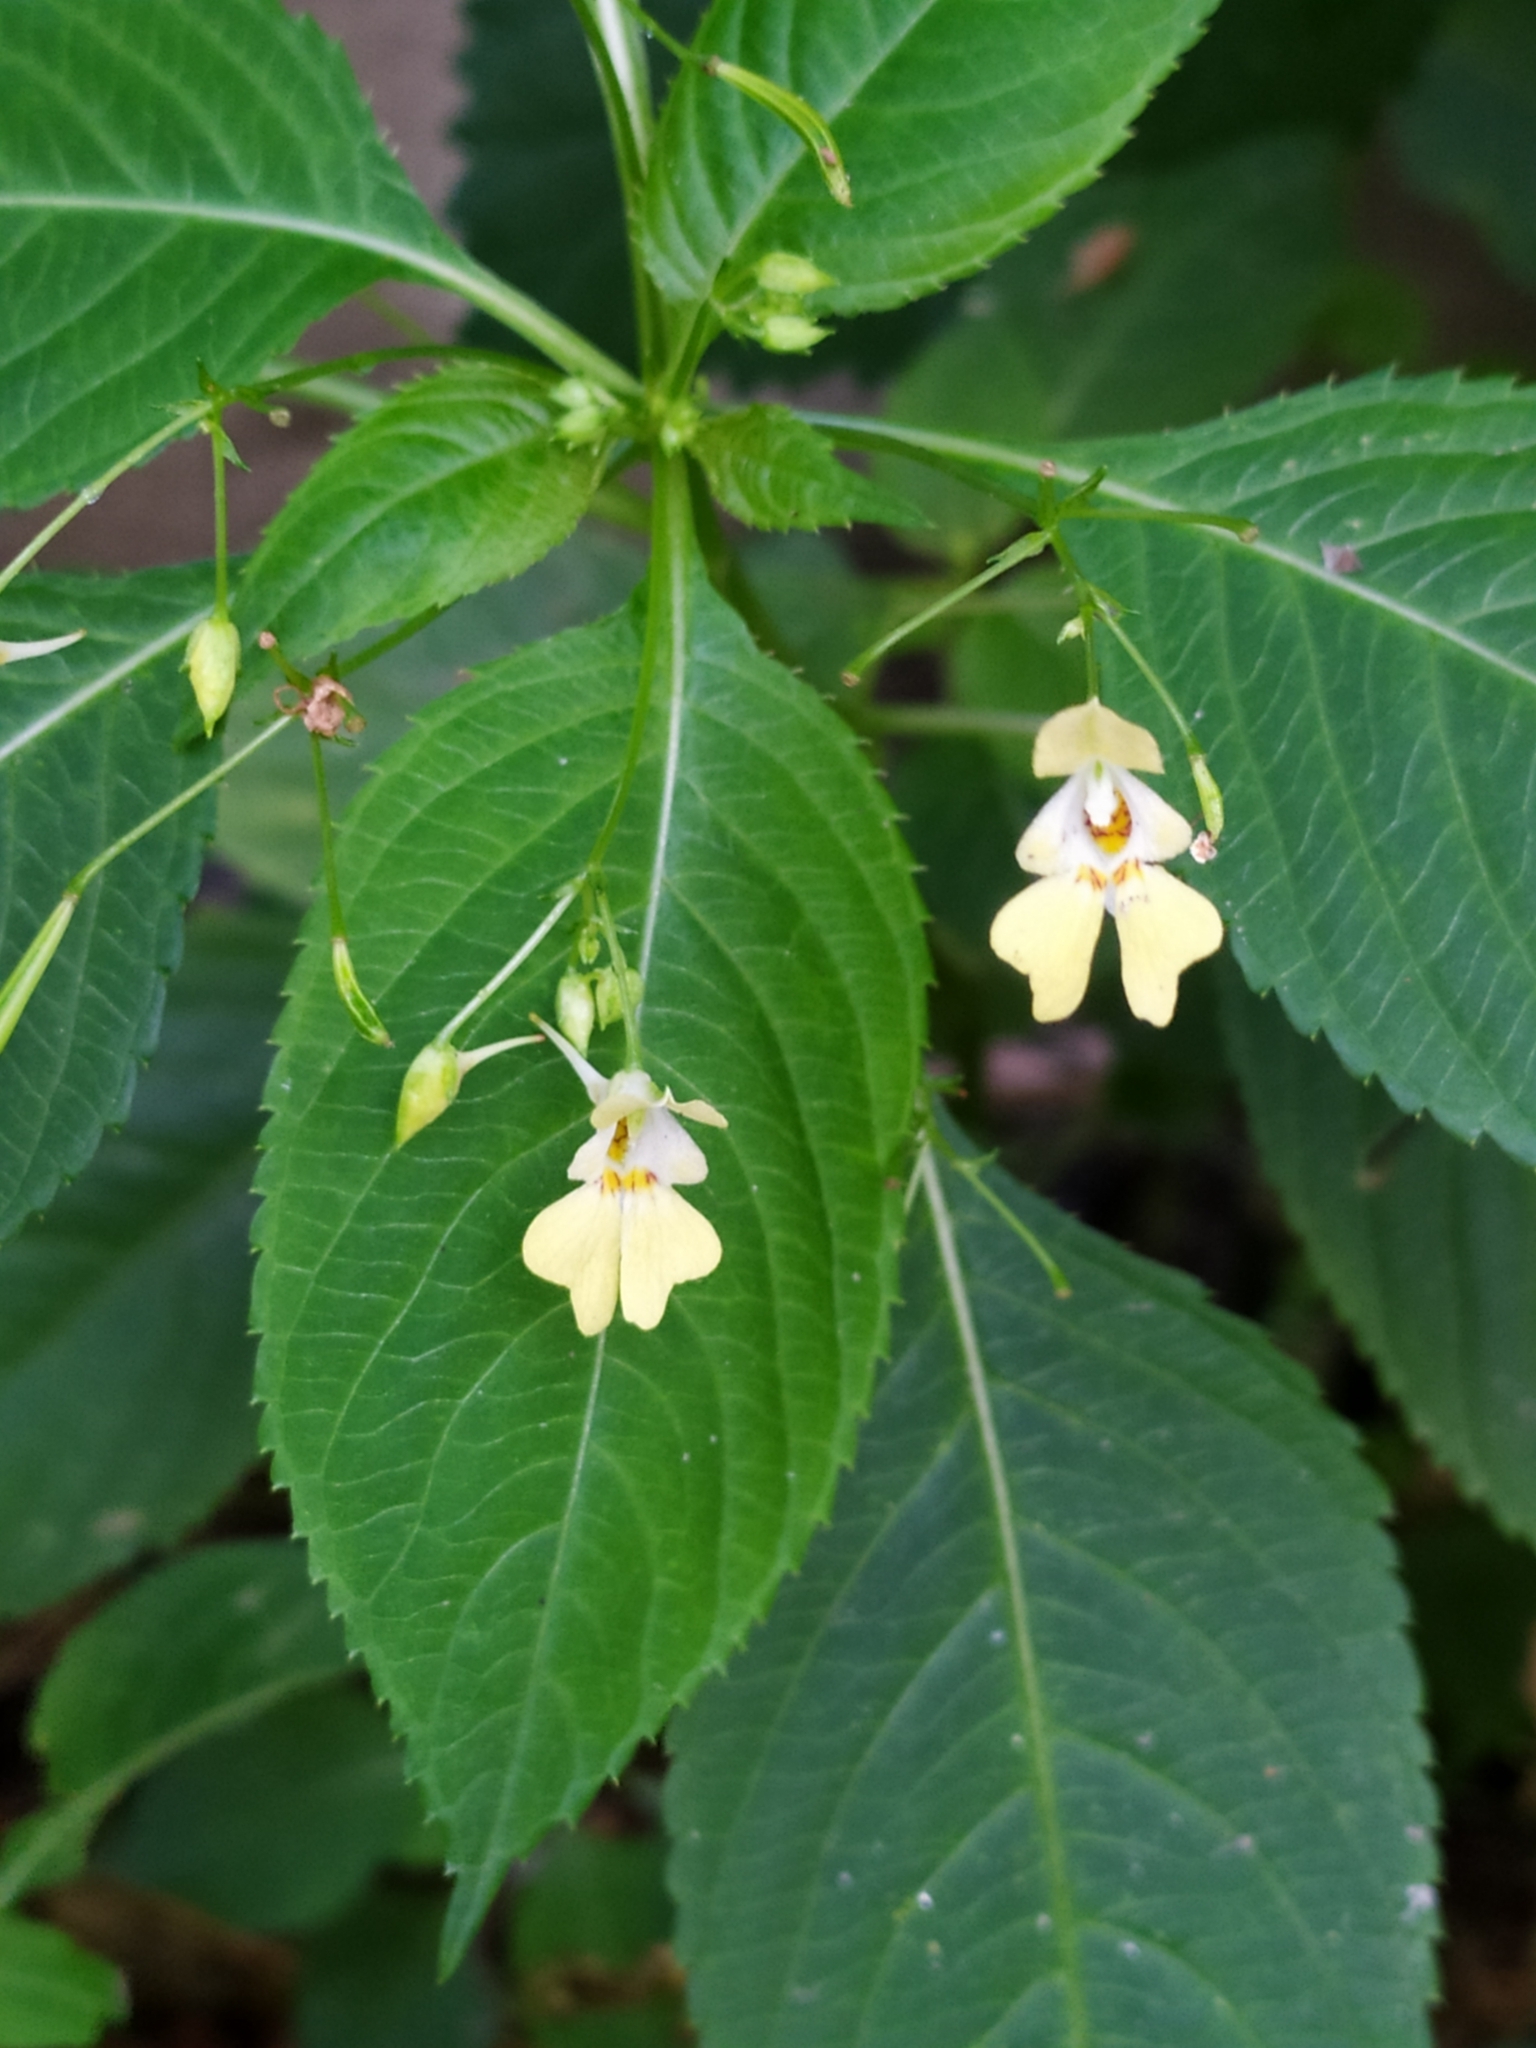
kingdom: Plantae
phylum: Tracheophyta
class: Magnoliopsida
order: Ericales
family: Balsaminaceae
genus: Impatiens
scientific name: Impatiens parviflora
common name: Small balsam
